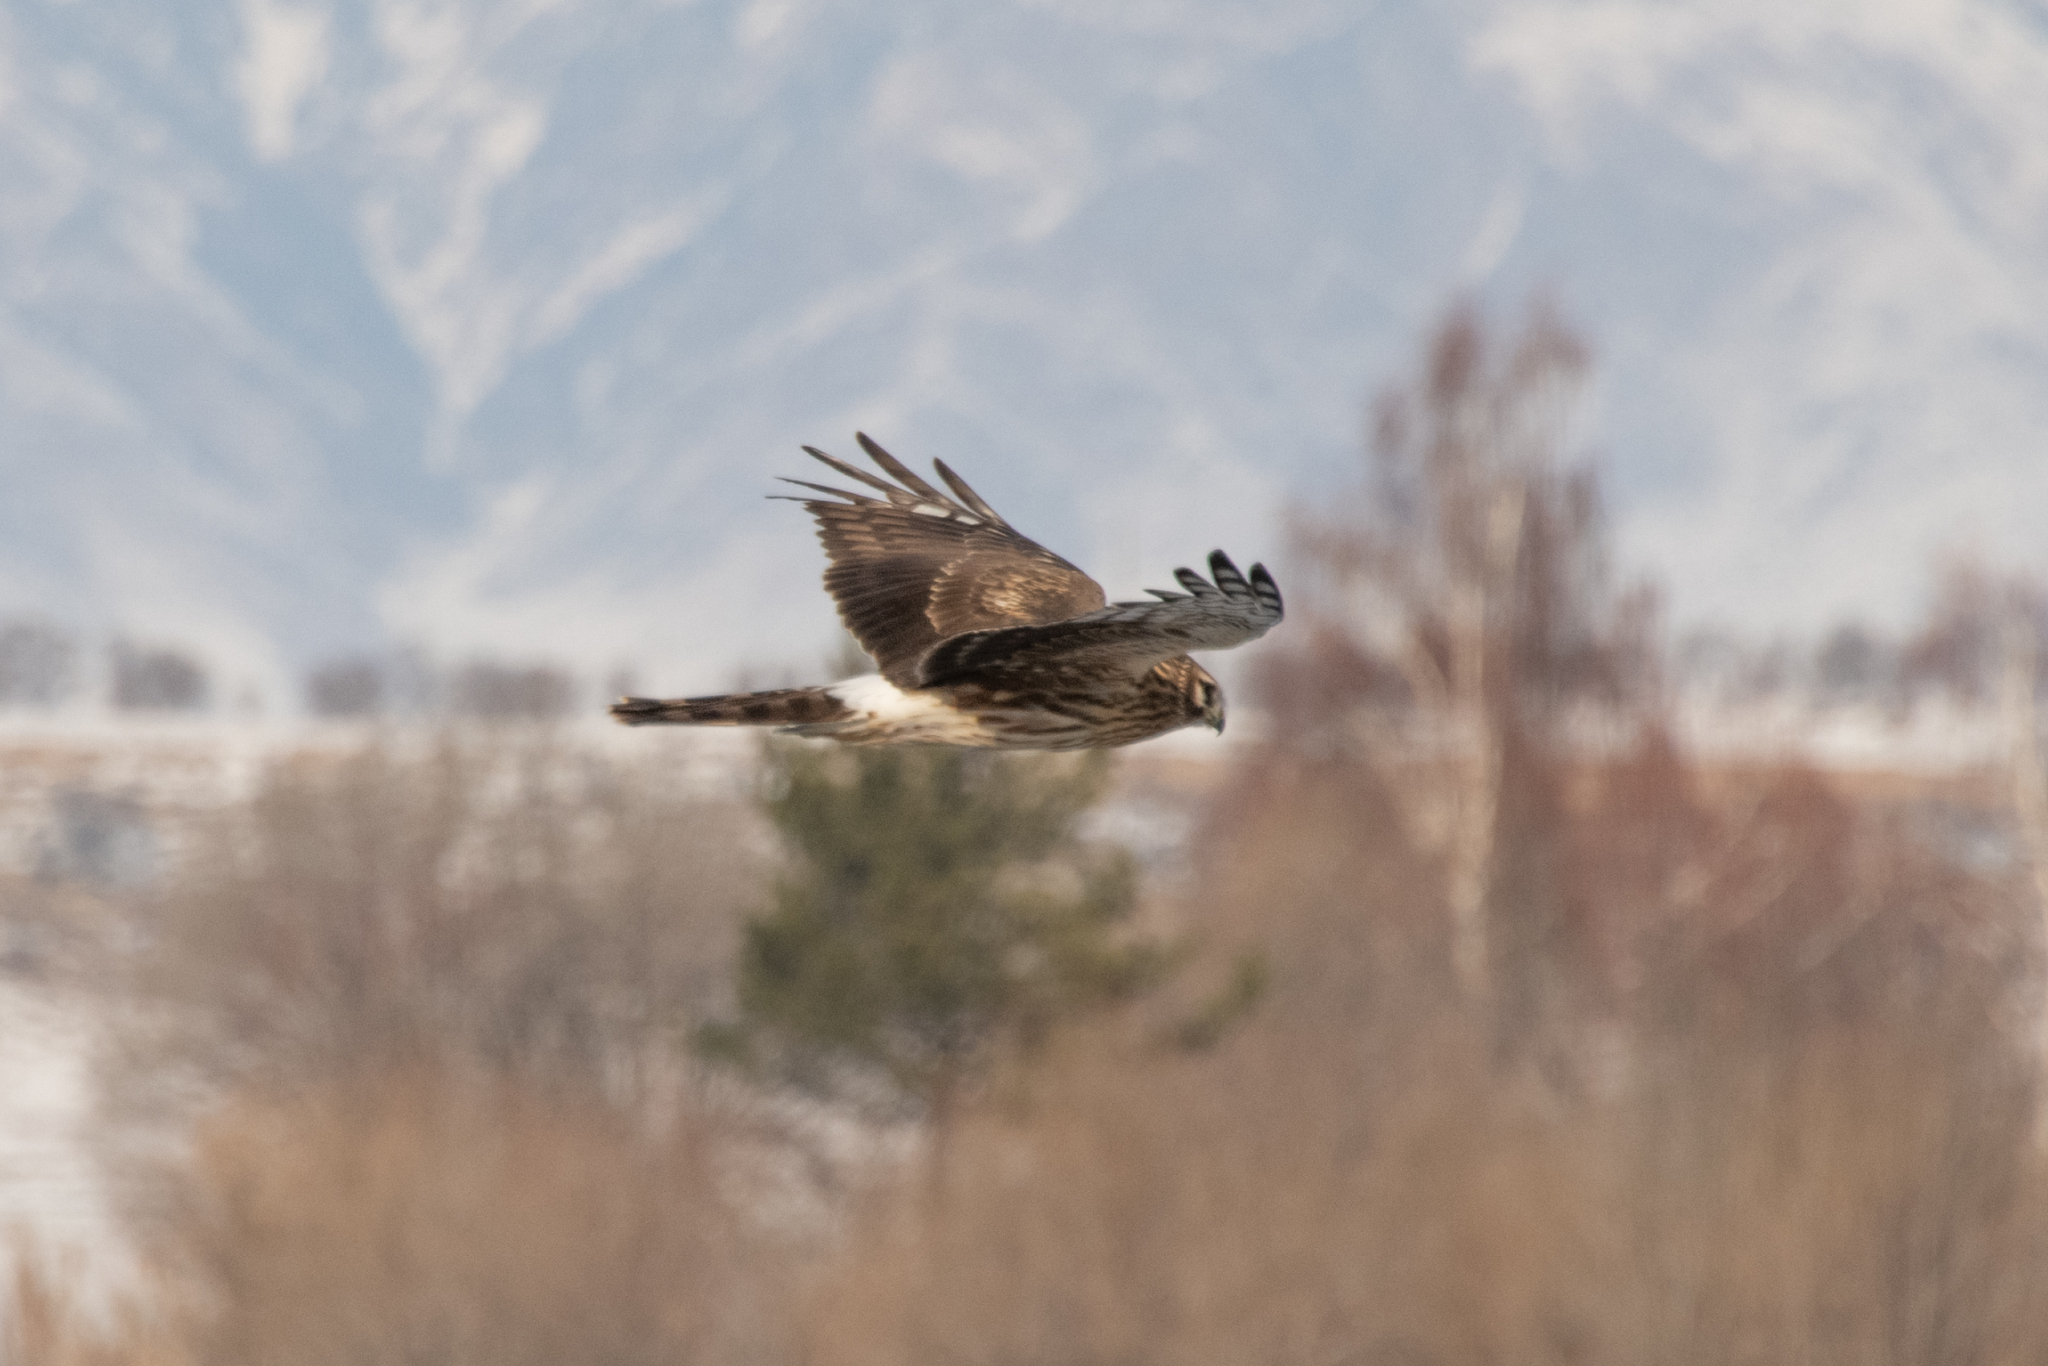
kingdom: Animalia
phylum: Chordata
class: Aves
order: Accipitriformes
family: Accipitridae
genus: Circus
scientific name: Circus cyaneus
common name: Hen harrier
